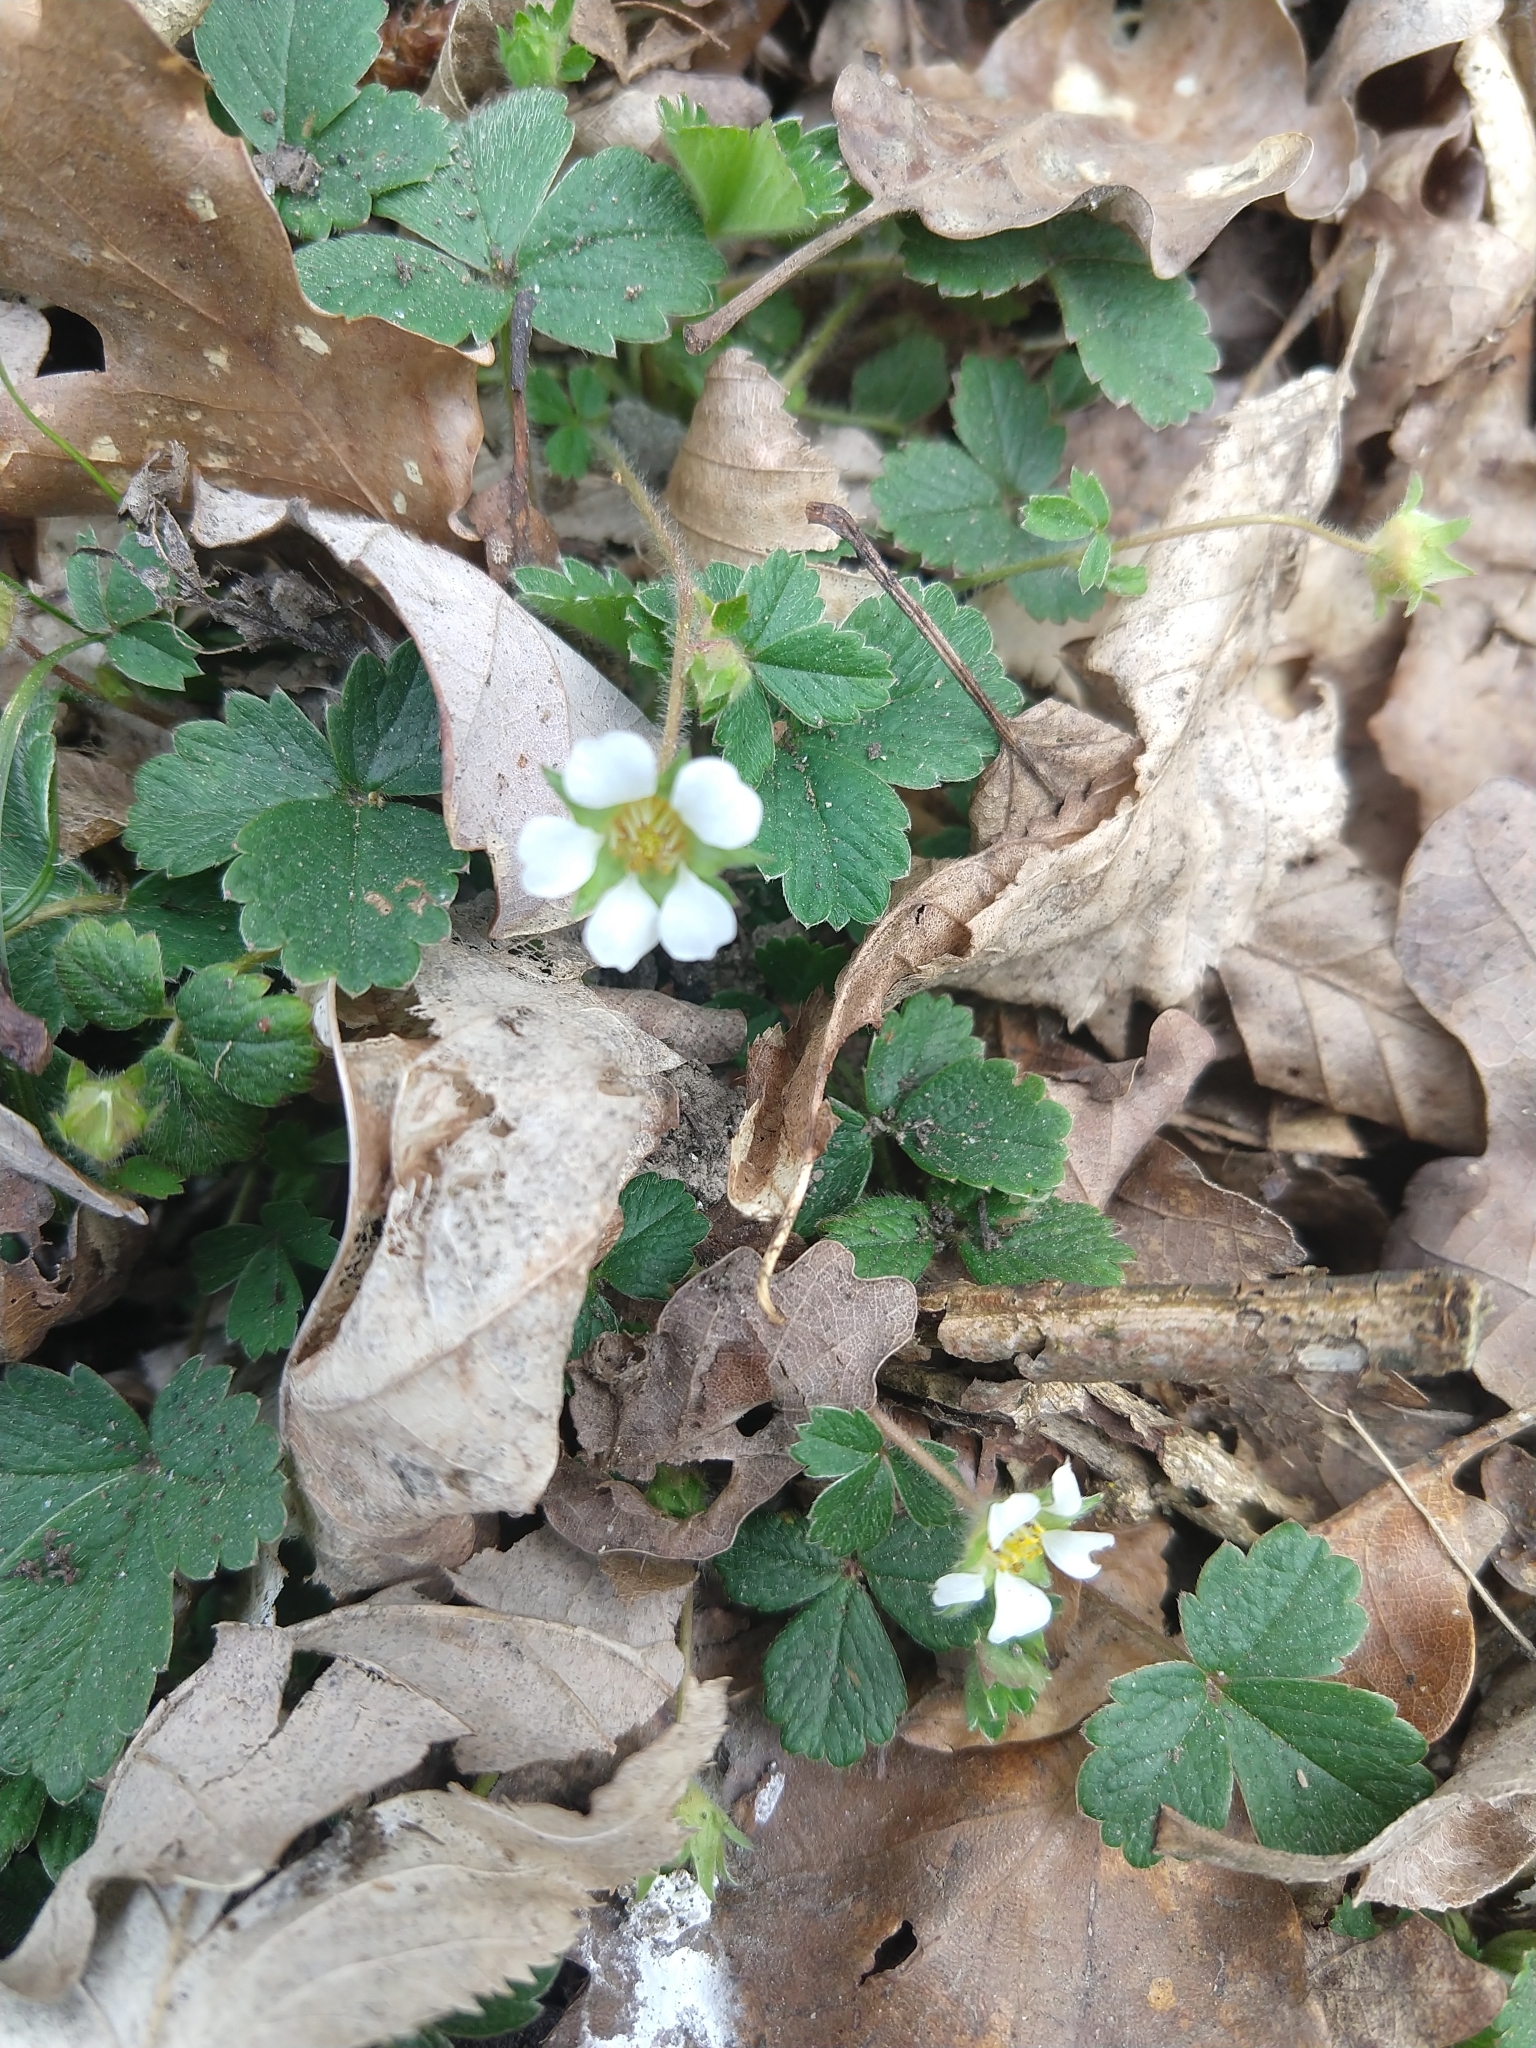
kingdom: Plantae
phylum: Tracheophyta
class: Magnoliopsida
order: Rosales
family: Rosaceae
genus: Potentilla
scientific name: Potentilla sterilis
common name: Barren strawberry
